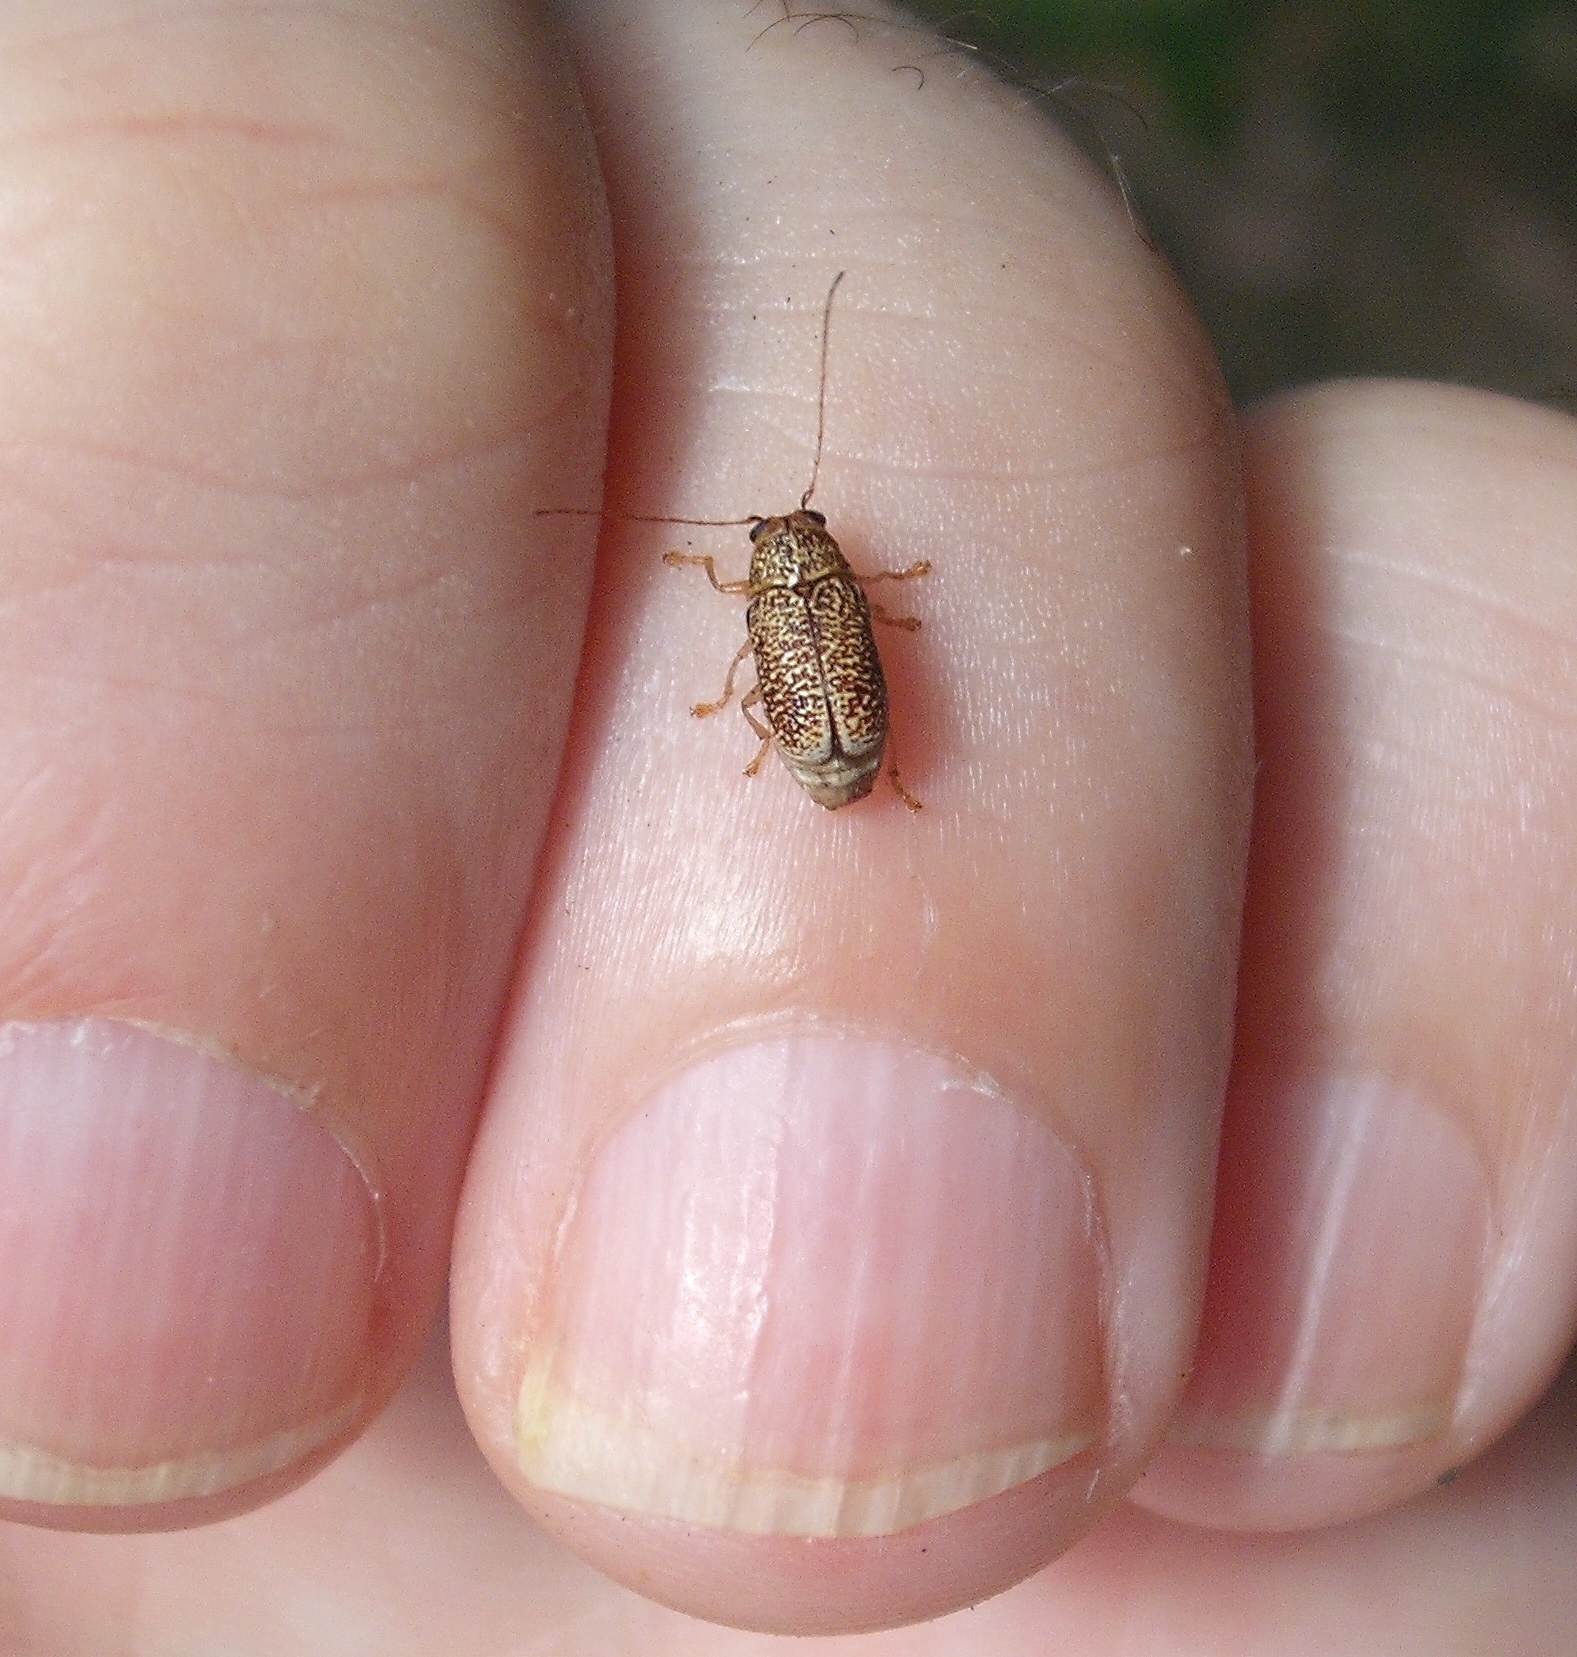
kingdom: Animalia
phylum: Arthropoda
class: Insecta
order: Coleoptera
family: Chrysomelidae
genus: Aporocera
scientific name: Aporocera
